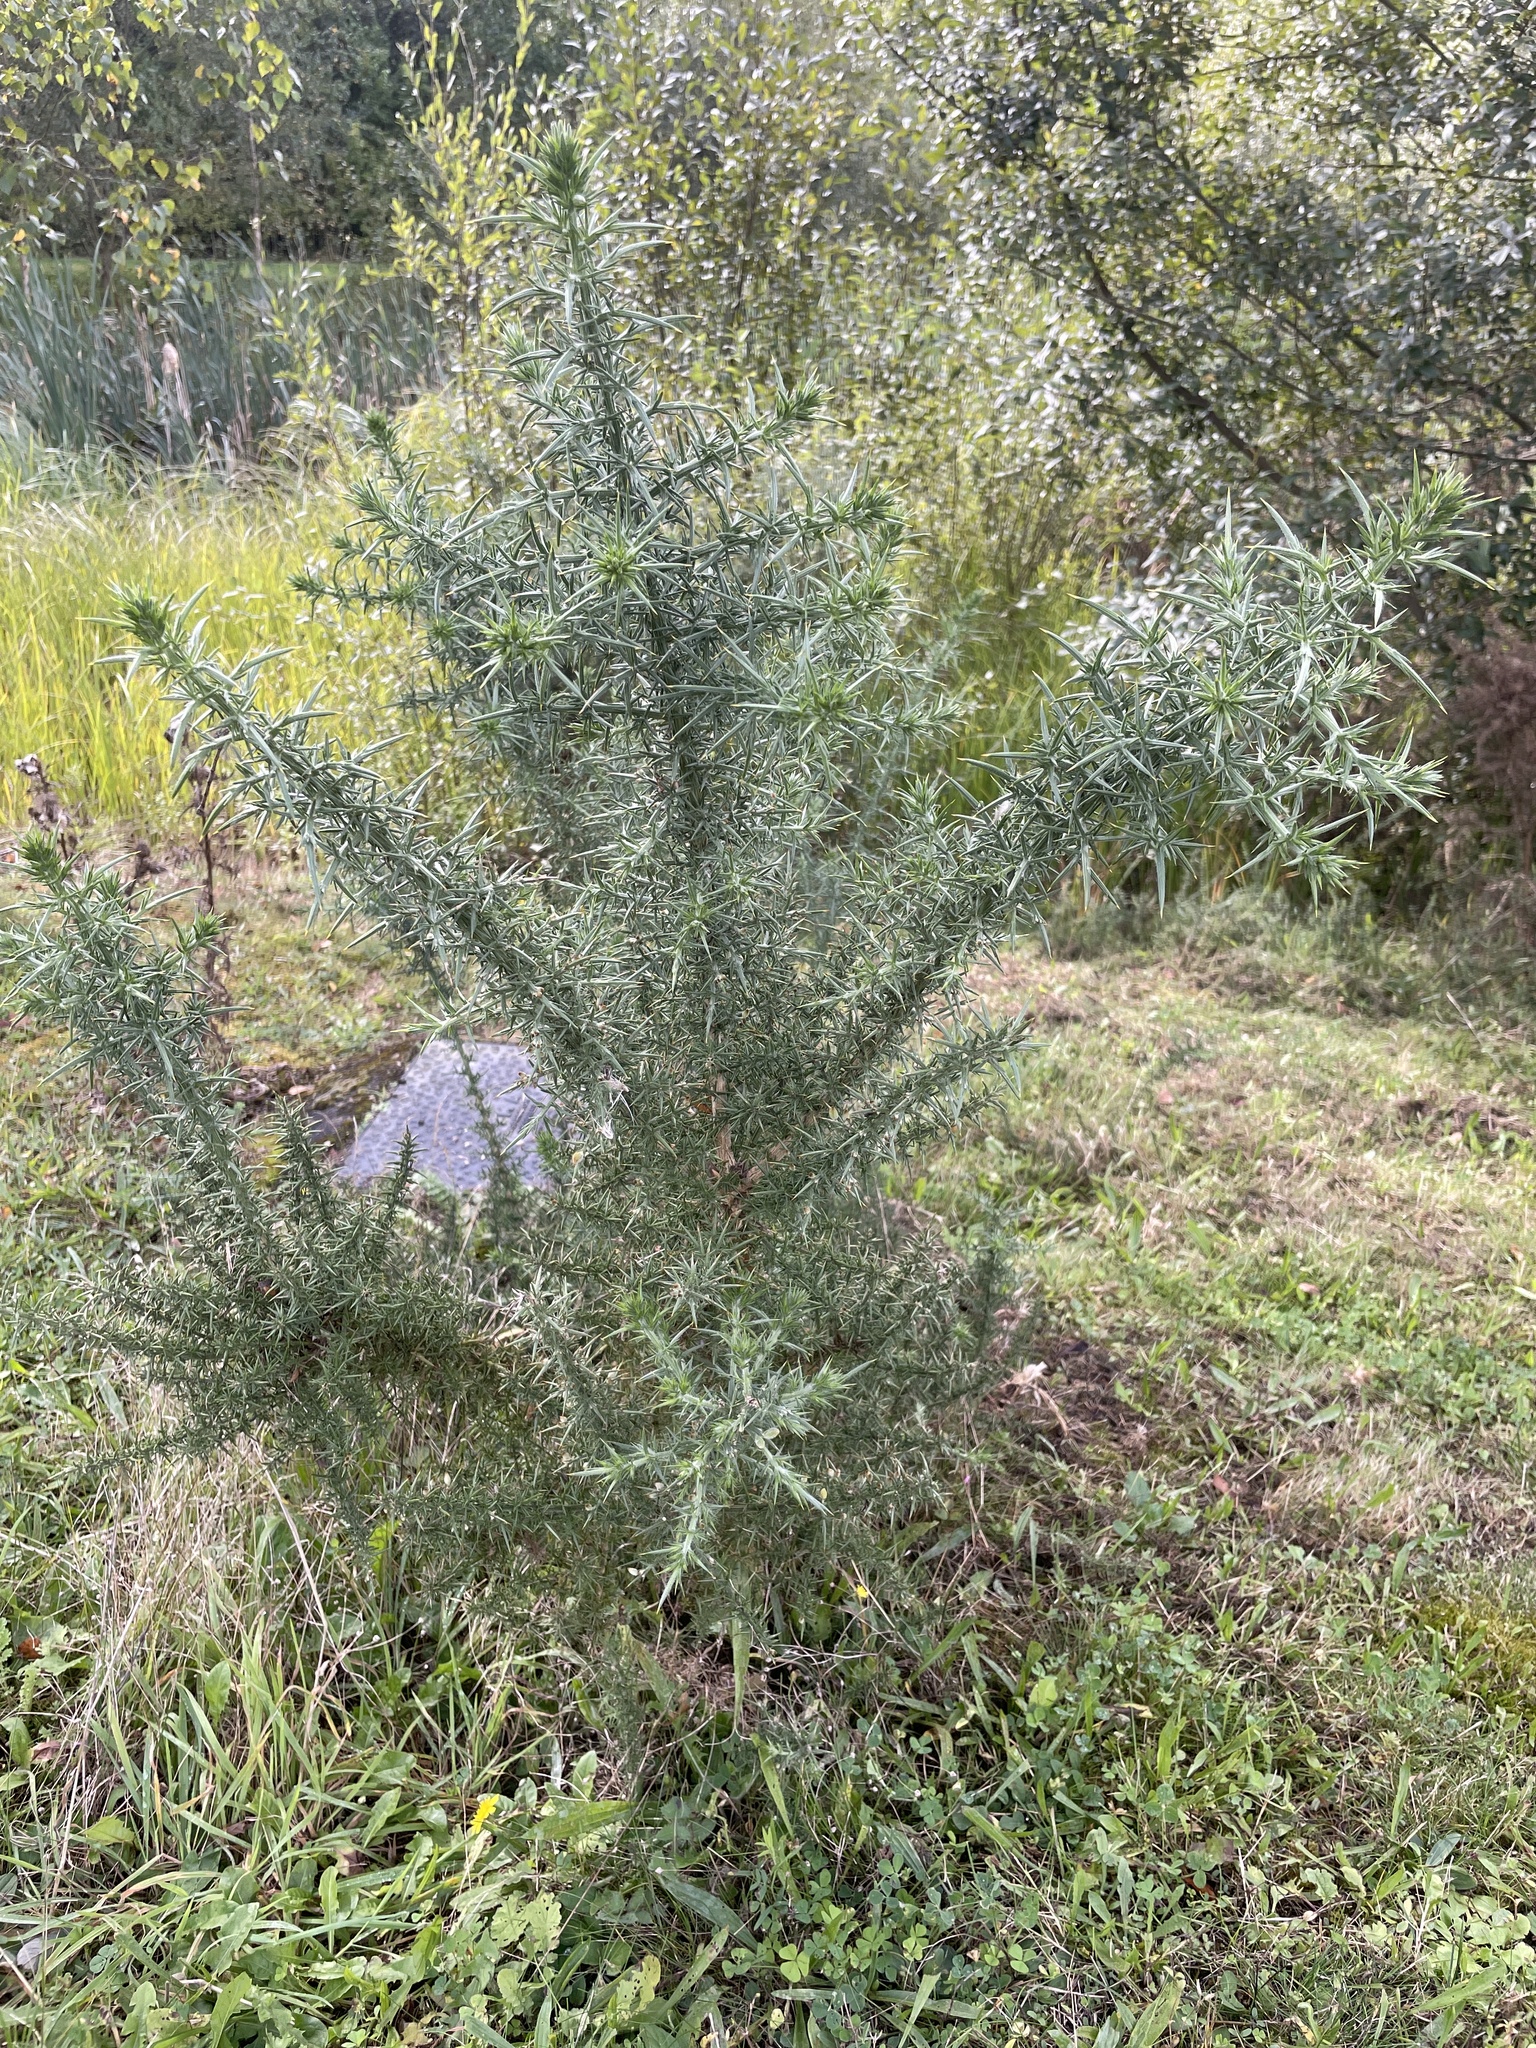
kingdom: Plantae
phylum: Tracheophyta
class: Magnoliopsida
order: Fabales
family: Fabaceae
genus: Ulex
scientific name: Ulex europaeus
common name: Common gorse
